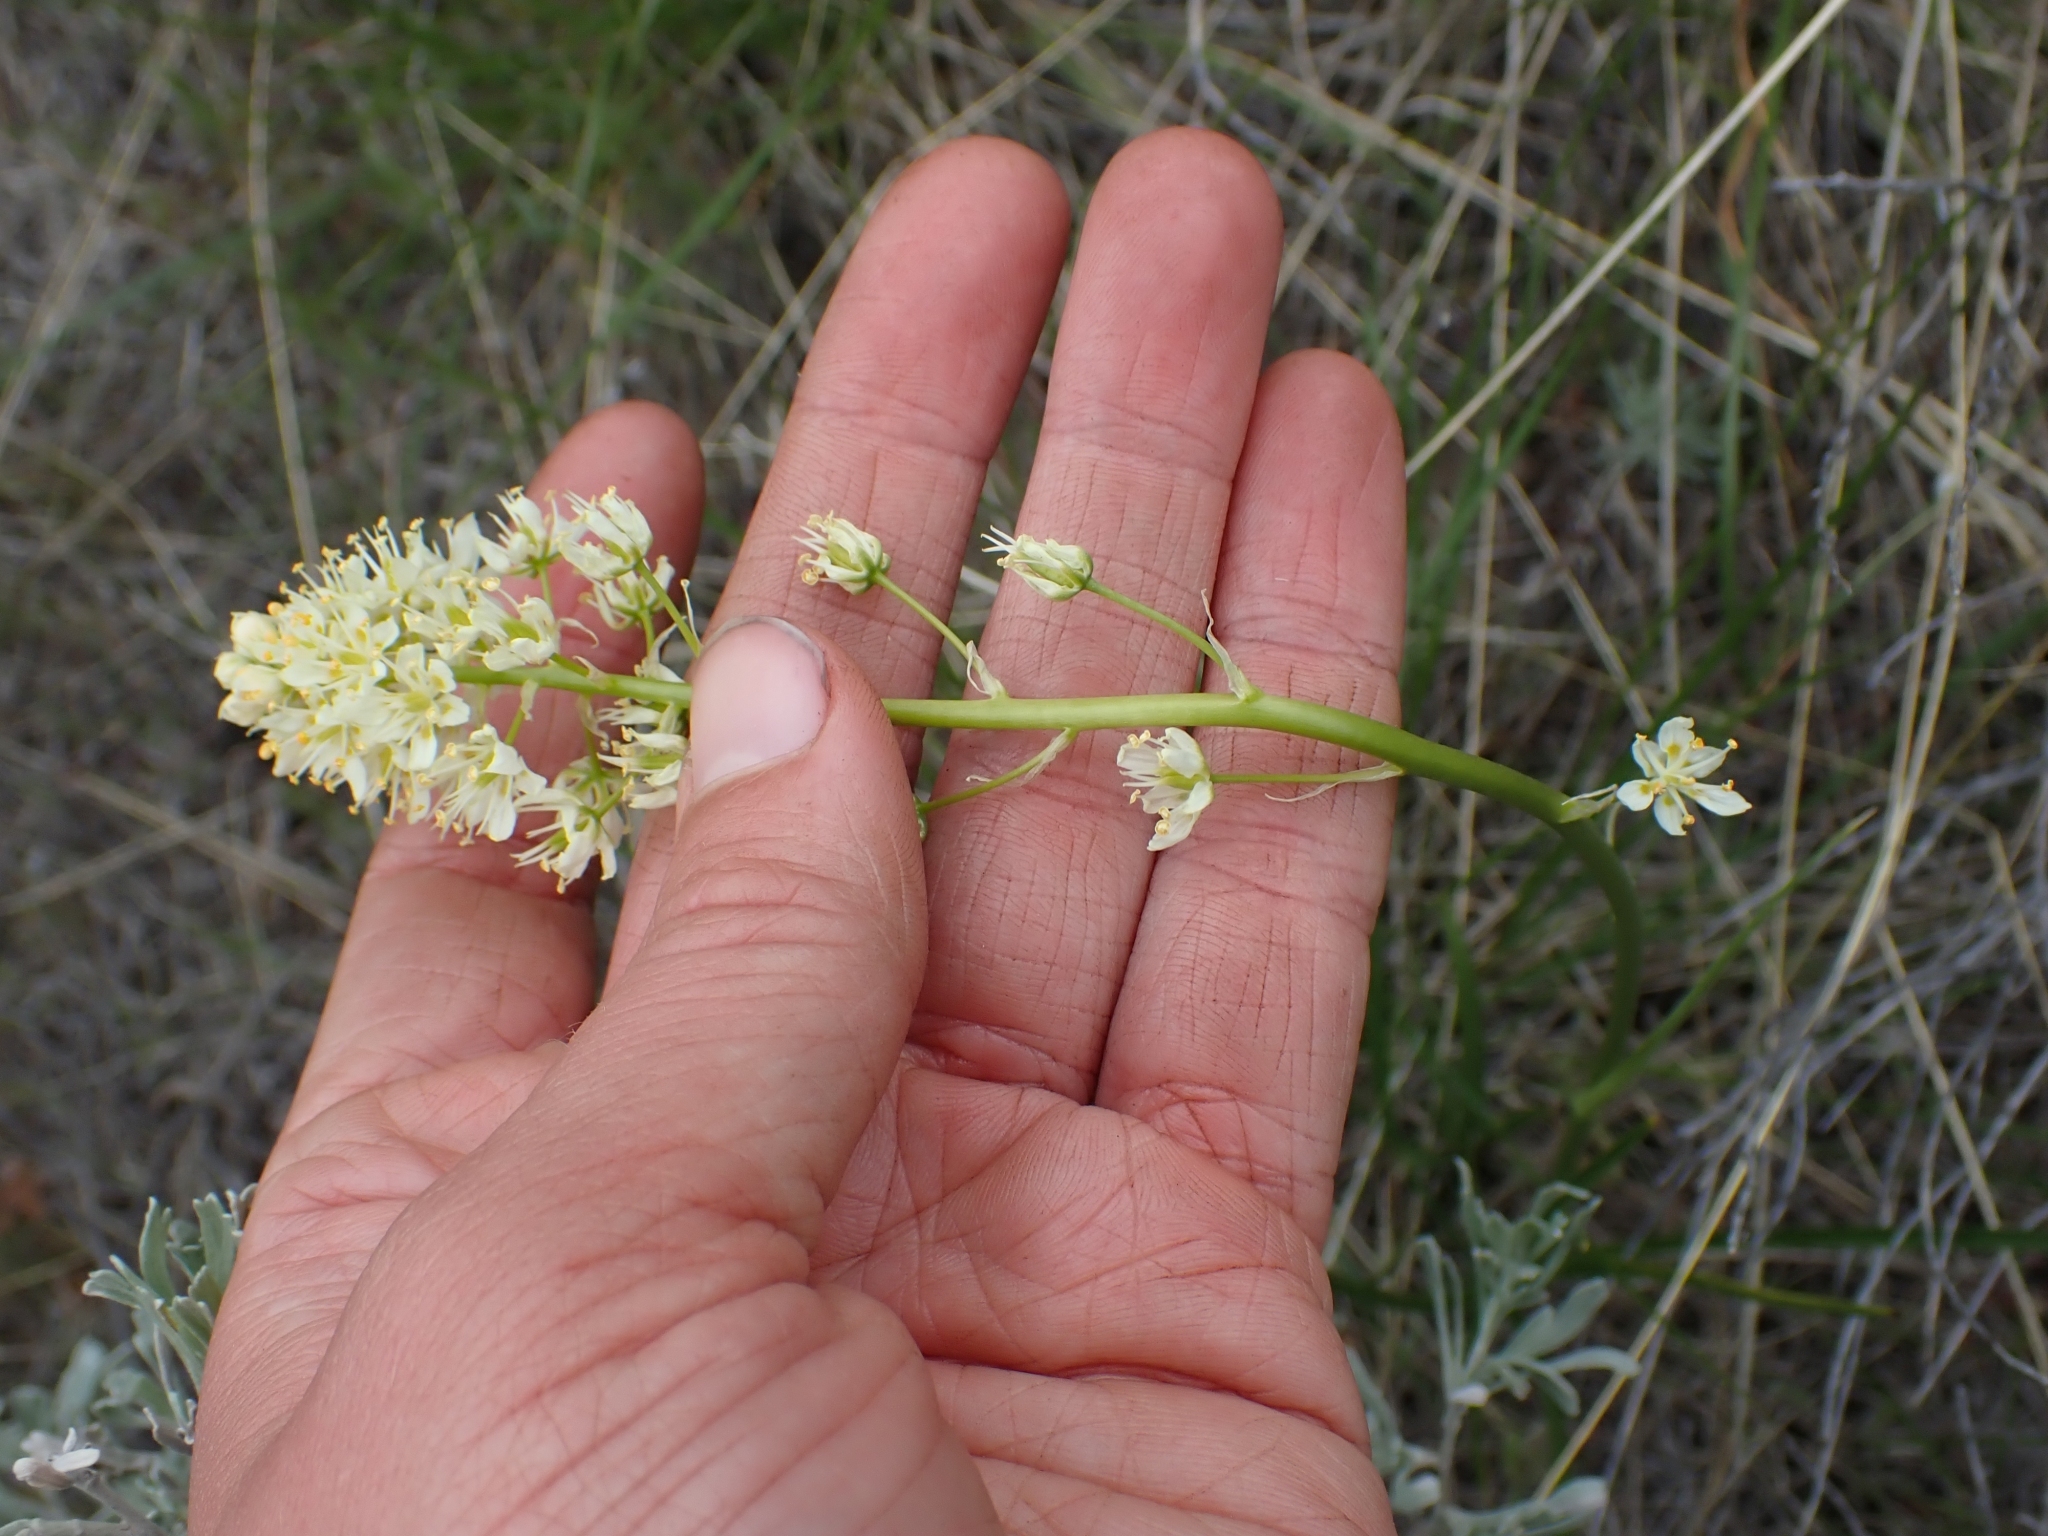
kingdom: Plantae
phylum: Tracheophyta
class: Liliopsida
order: Liliales
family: Melanthiaceae
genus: Toxicoscordion
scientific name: Toxicoscordion venenosum
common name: Meadow death camas
